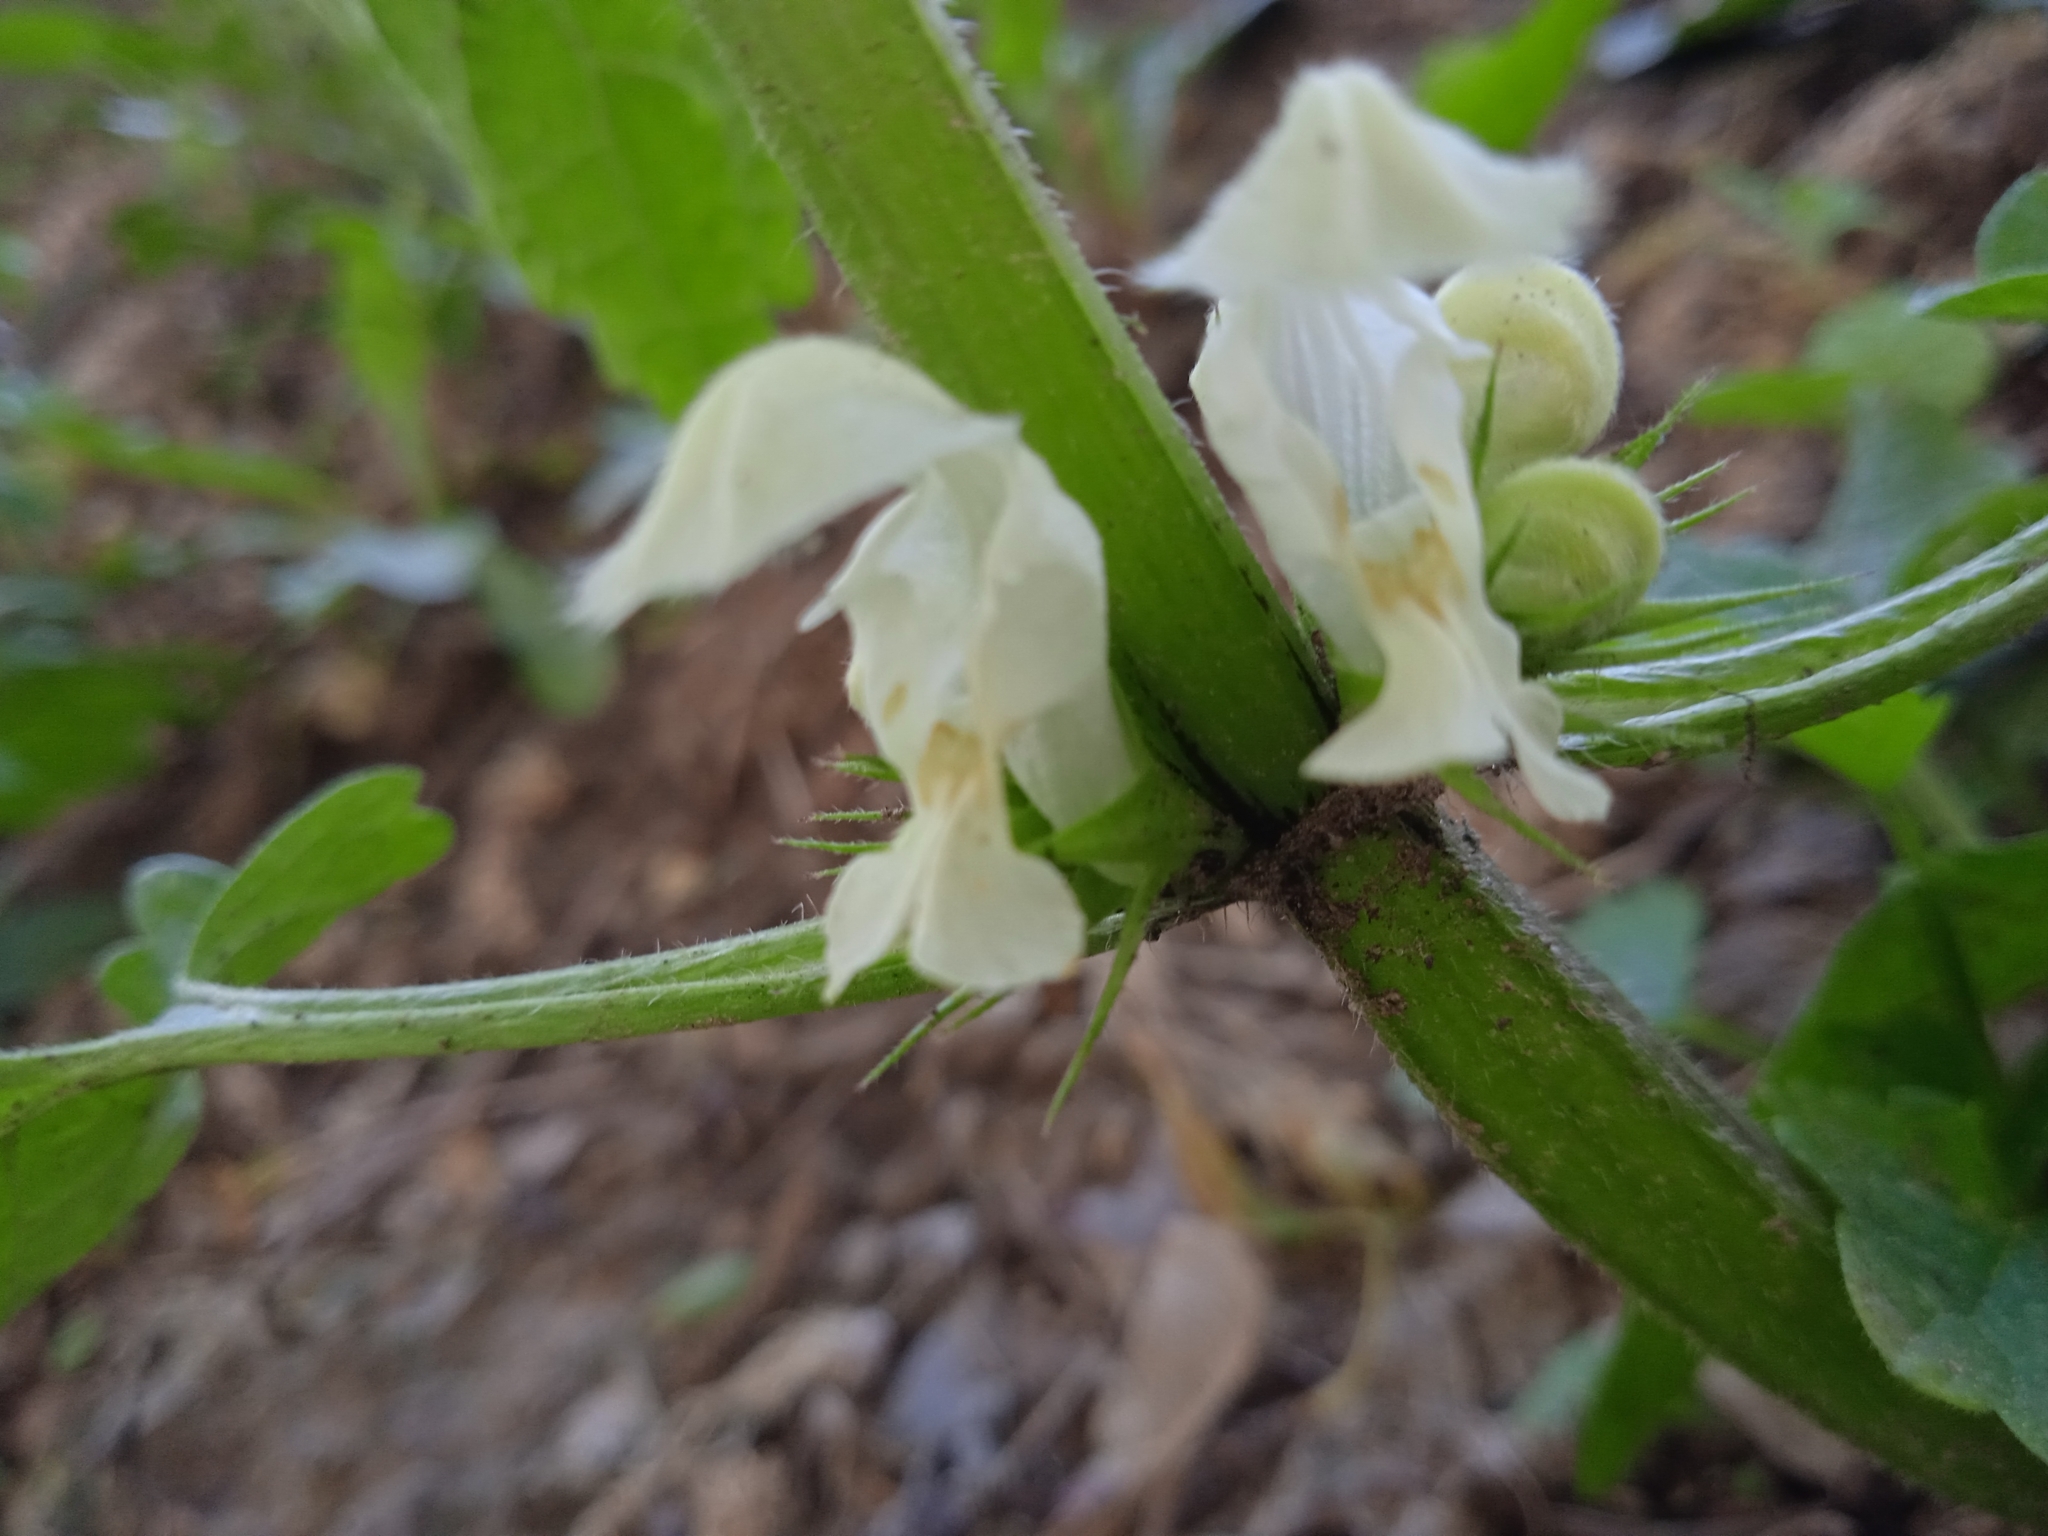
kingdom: Plantae
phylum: Tracheophyta
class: Magnoliopsida
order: Lamiales
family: Lamiaceae
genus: Lamium
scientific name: Lamium album
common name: White dead-nettle
